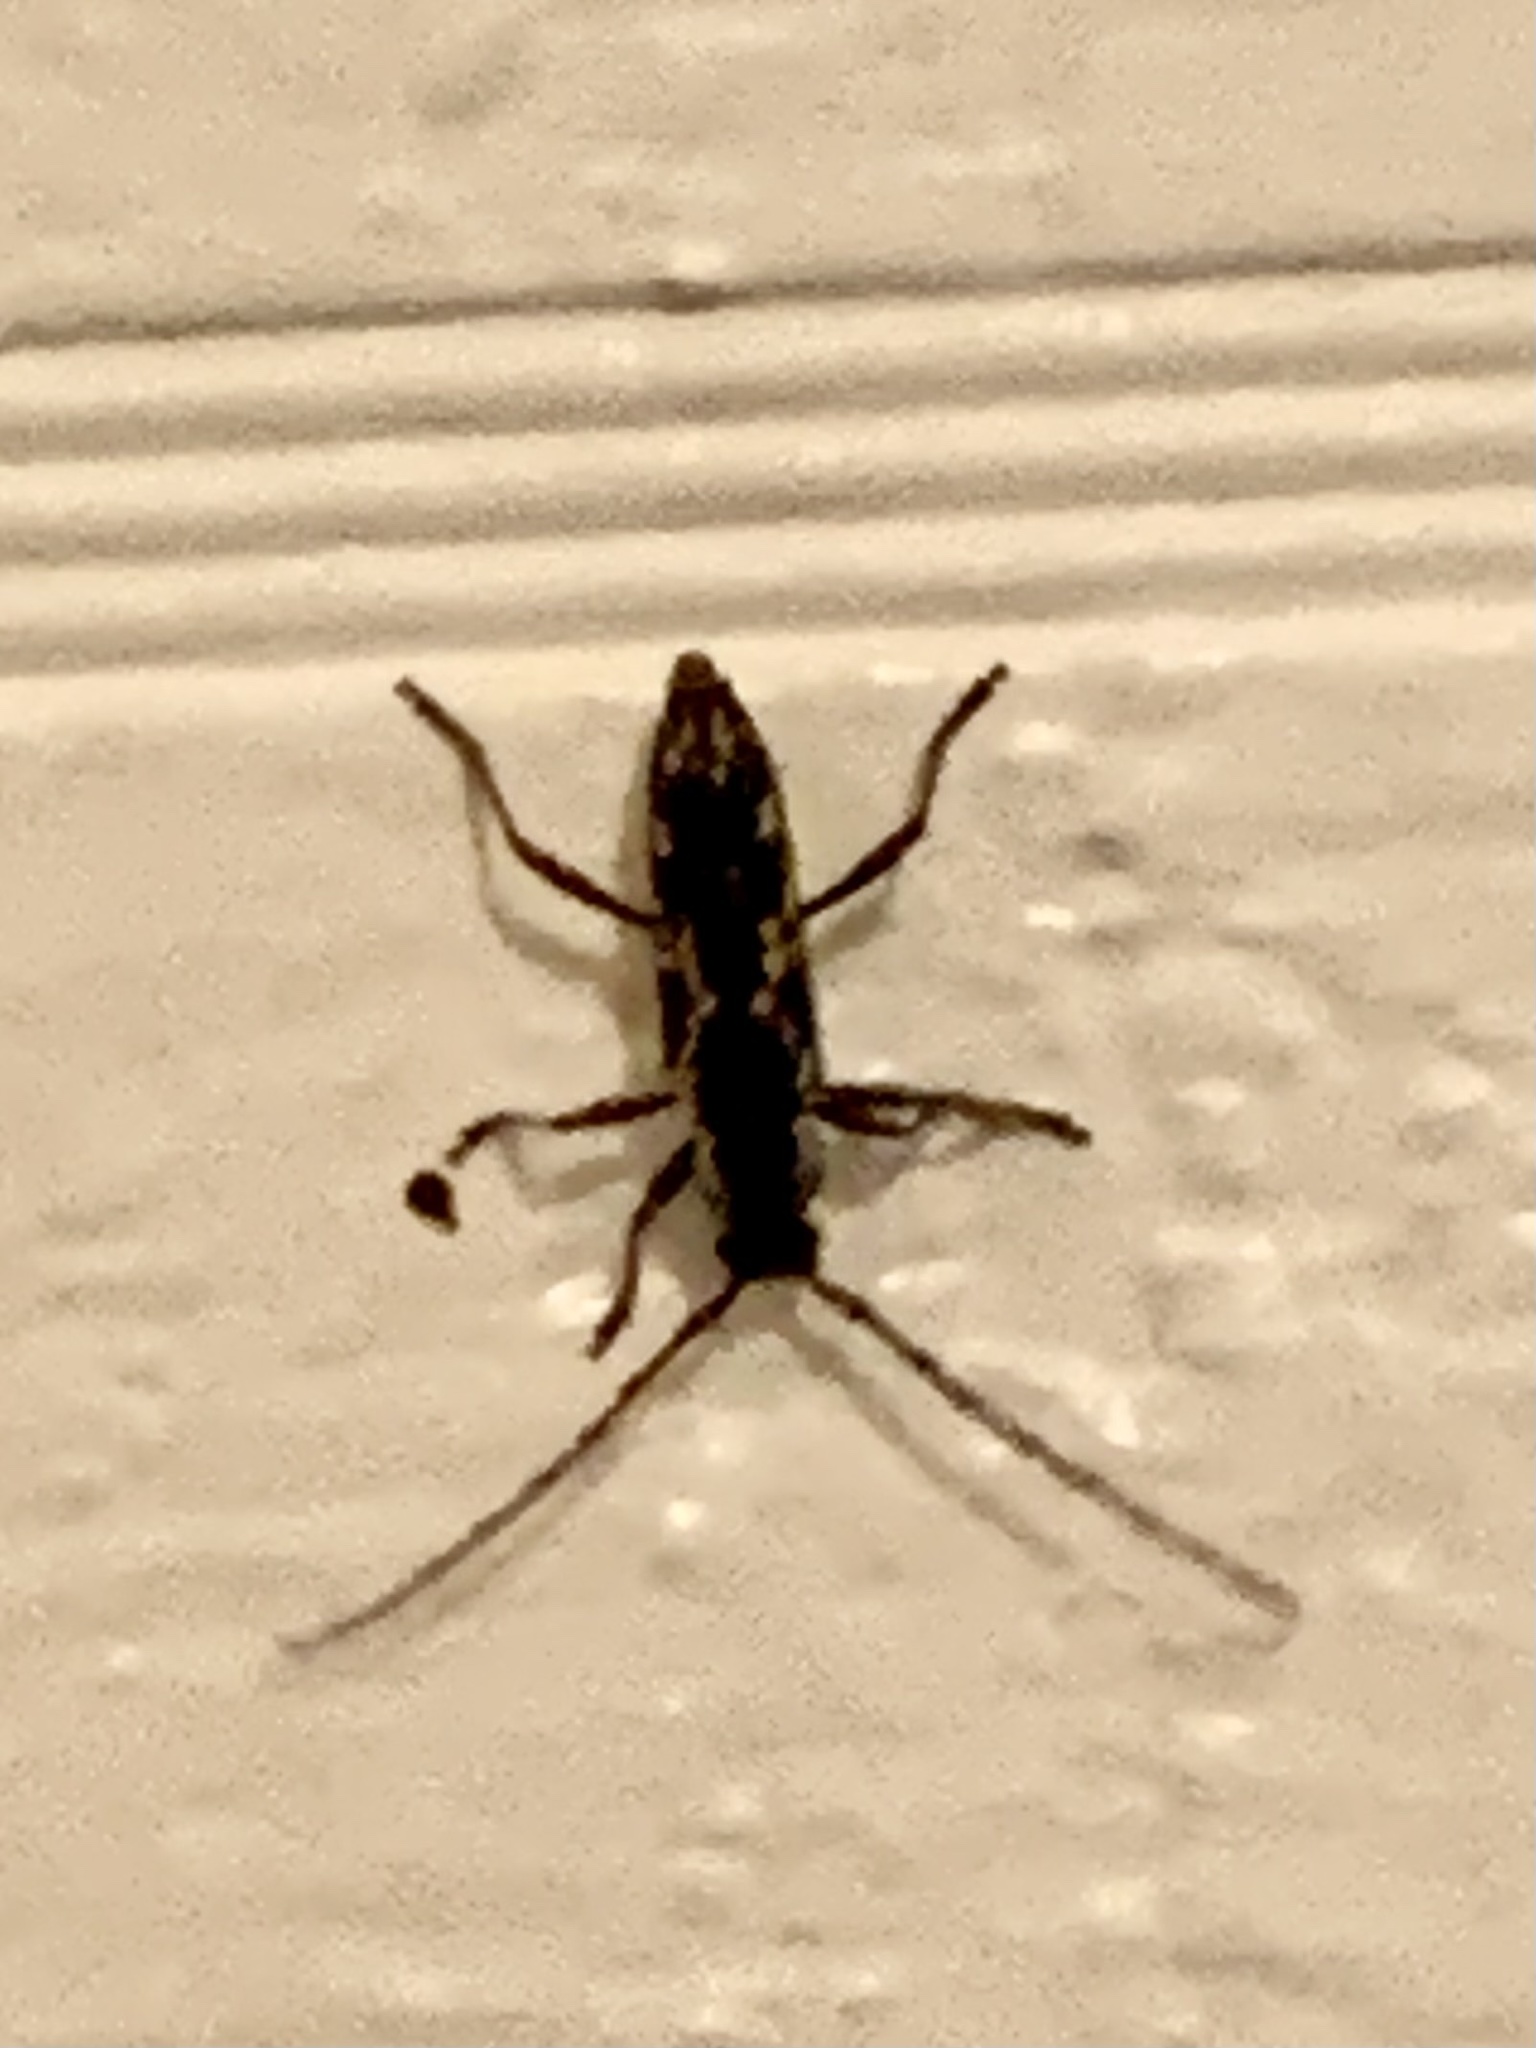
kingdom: Animalia
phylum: Arthropoda
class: Insecta
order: Coleoptera
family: Cerambycidae
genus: Elaphidion
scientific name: Elaphidion irroratum
